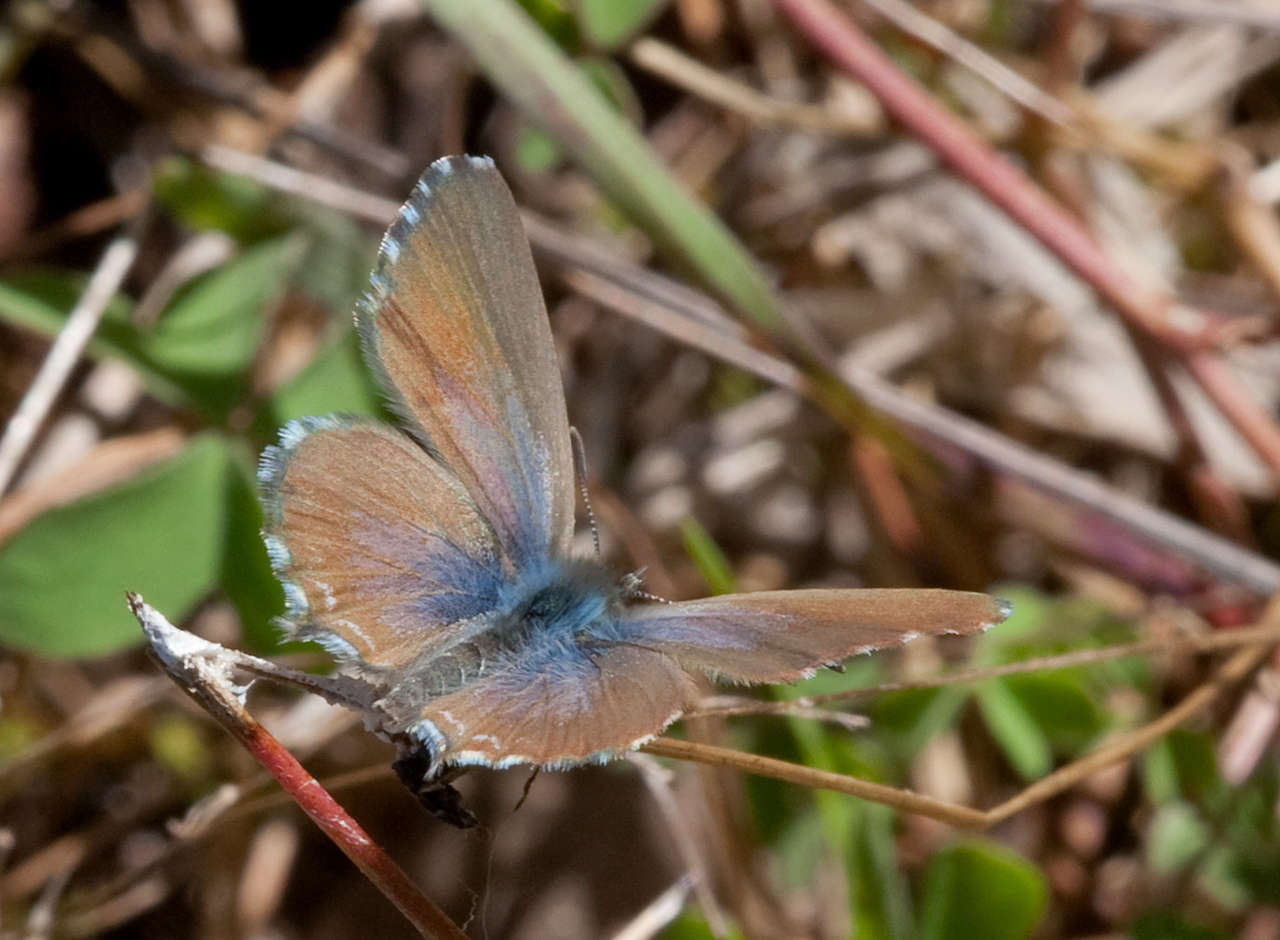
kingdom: Animalia
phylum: Arthropoda
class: Insecta
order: Lepidoptera
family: Lycaenidae
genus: Theclinesthes
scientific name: Theclinesthes serpentata
